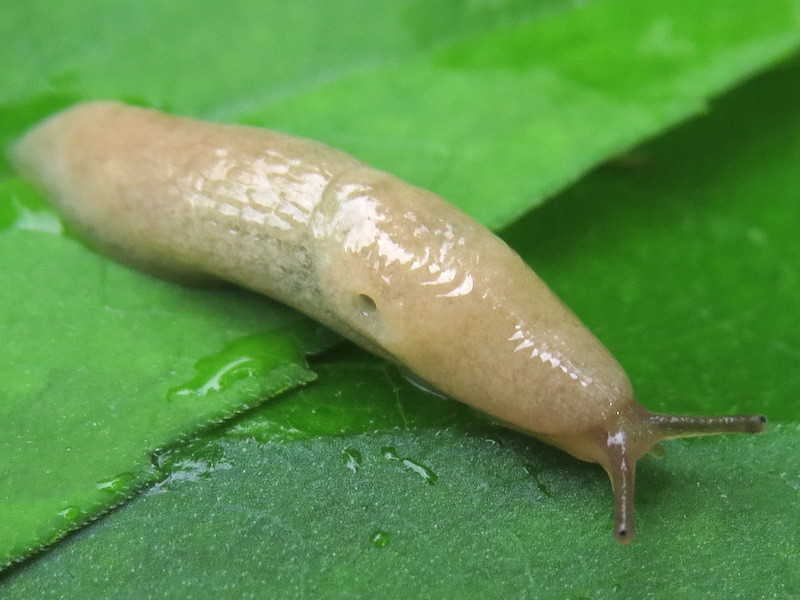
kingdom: Animalia
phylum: Mollusca
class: Gastropoda
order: Stylommatophora
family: Agriolimacidae
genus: Deroceras
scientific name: Deroceras reticulatum
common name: Gray field slug
